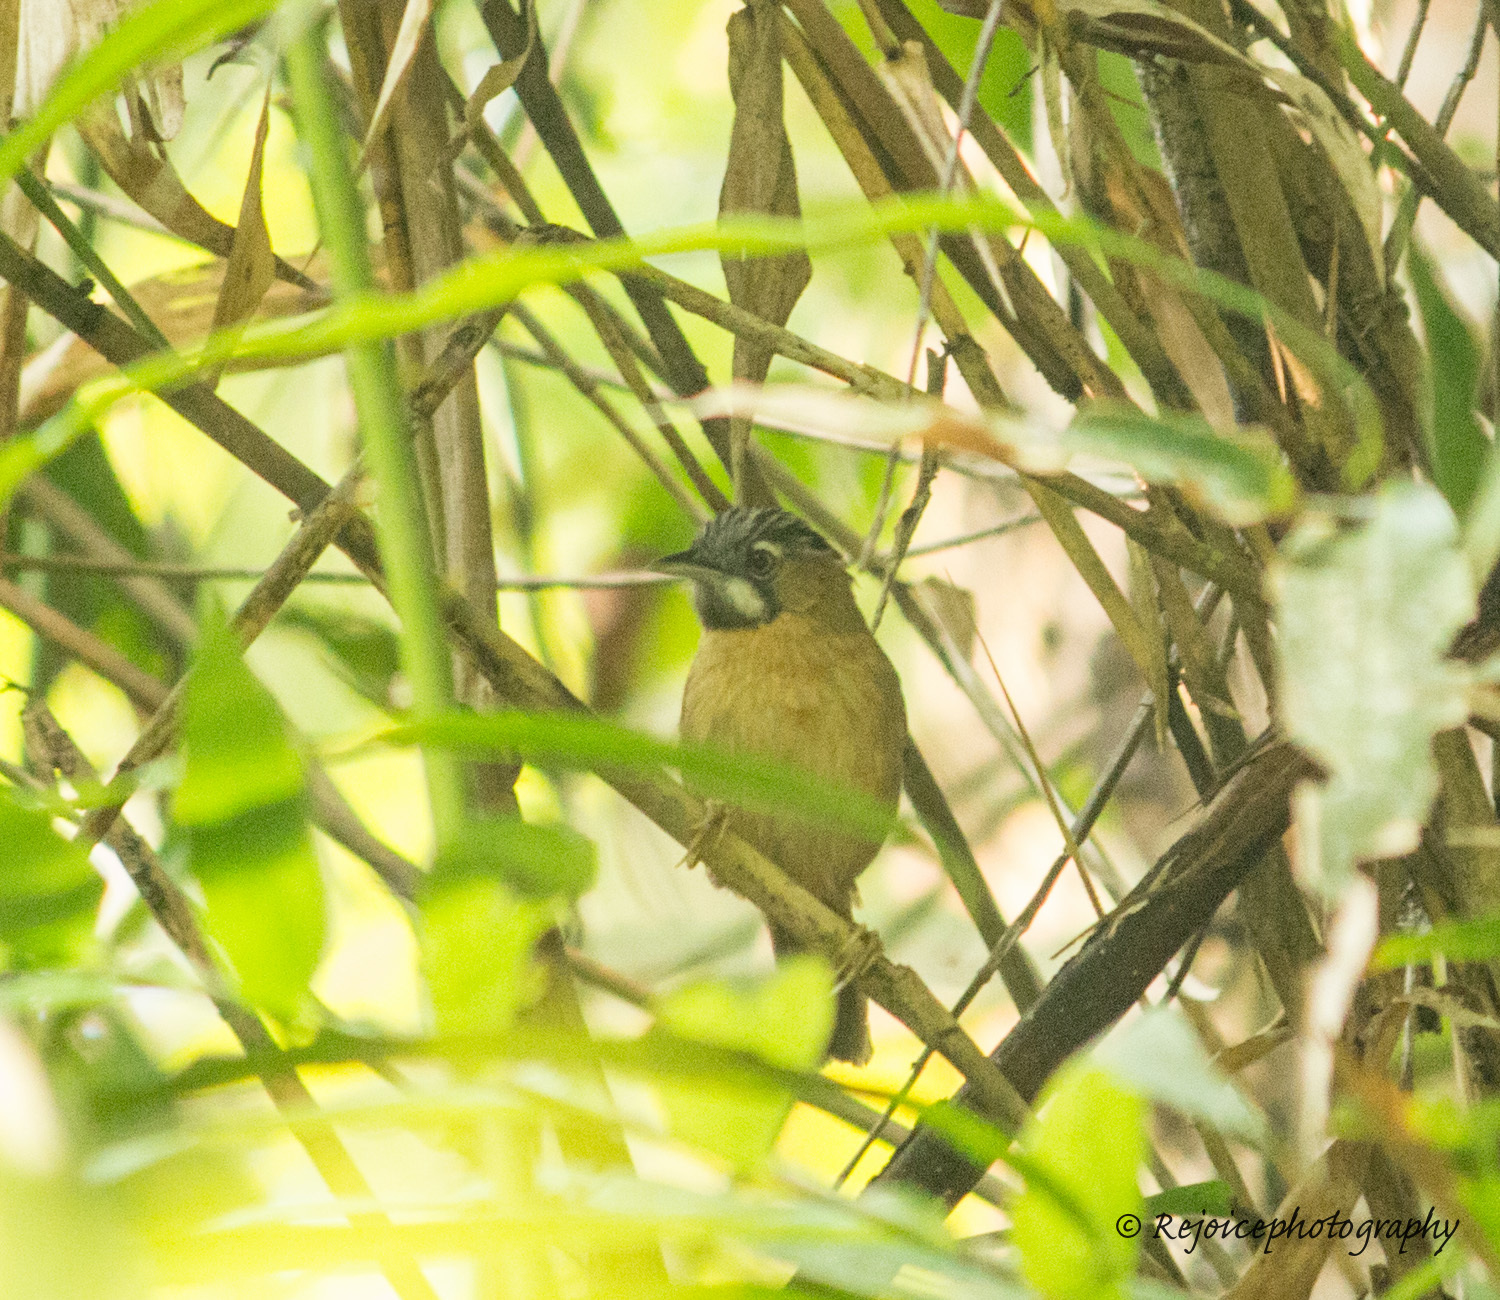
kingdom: Animalia
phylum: Chordata
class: Aves
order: Passeriformes
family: Timaliidae
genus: Stachyris
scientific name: Stachyris nigriceps
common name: Grey-throated babbler
